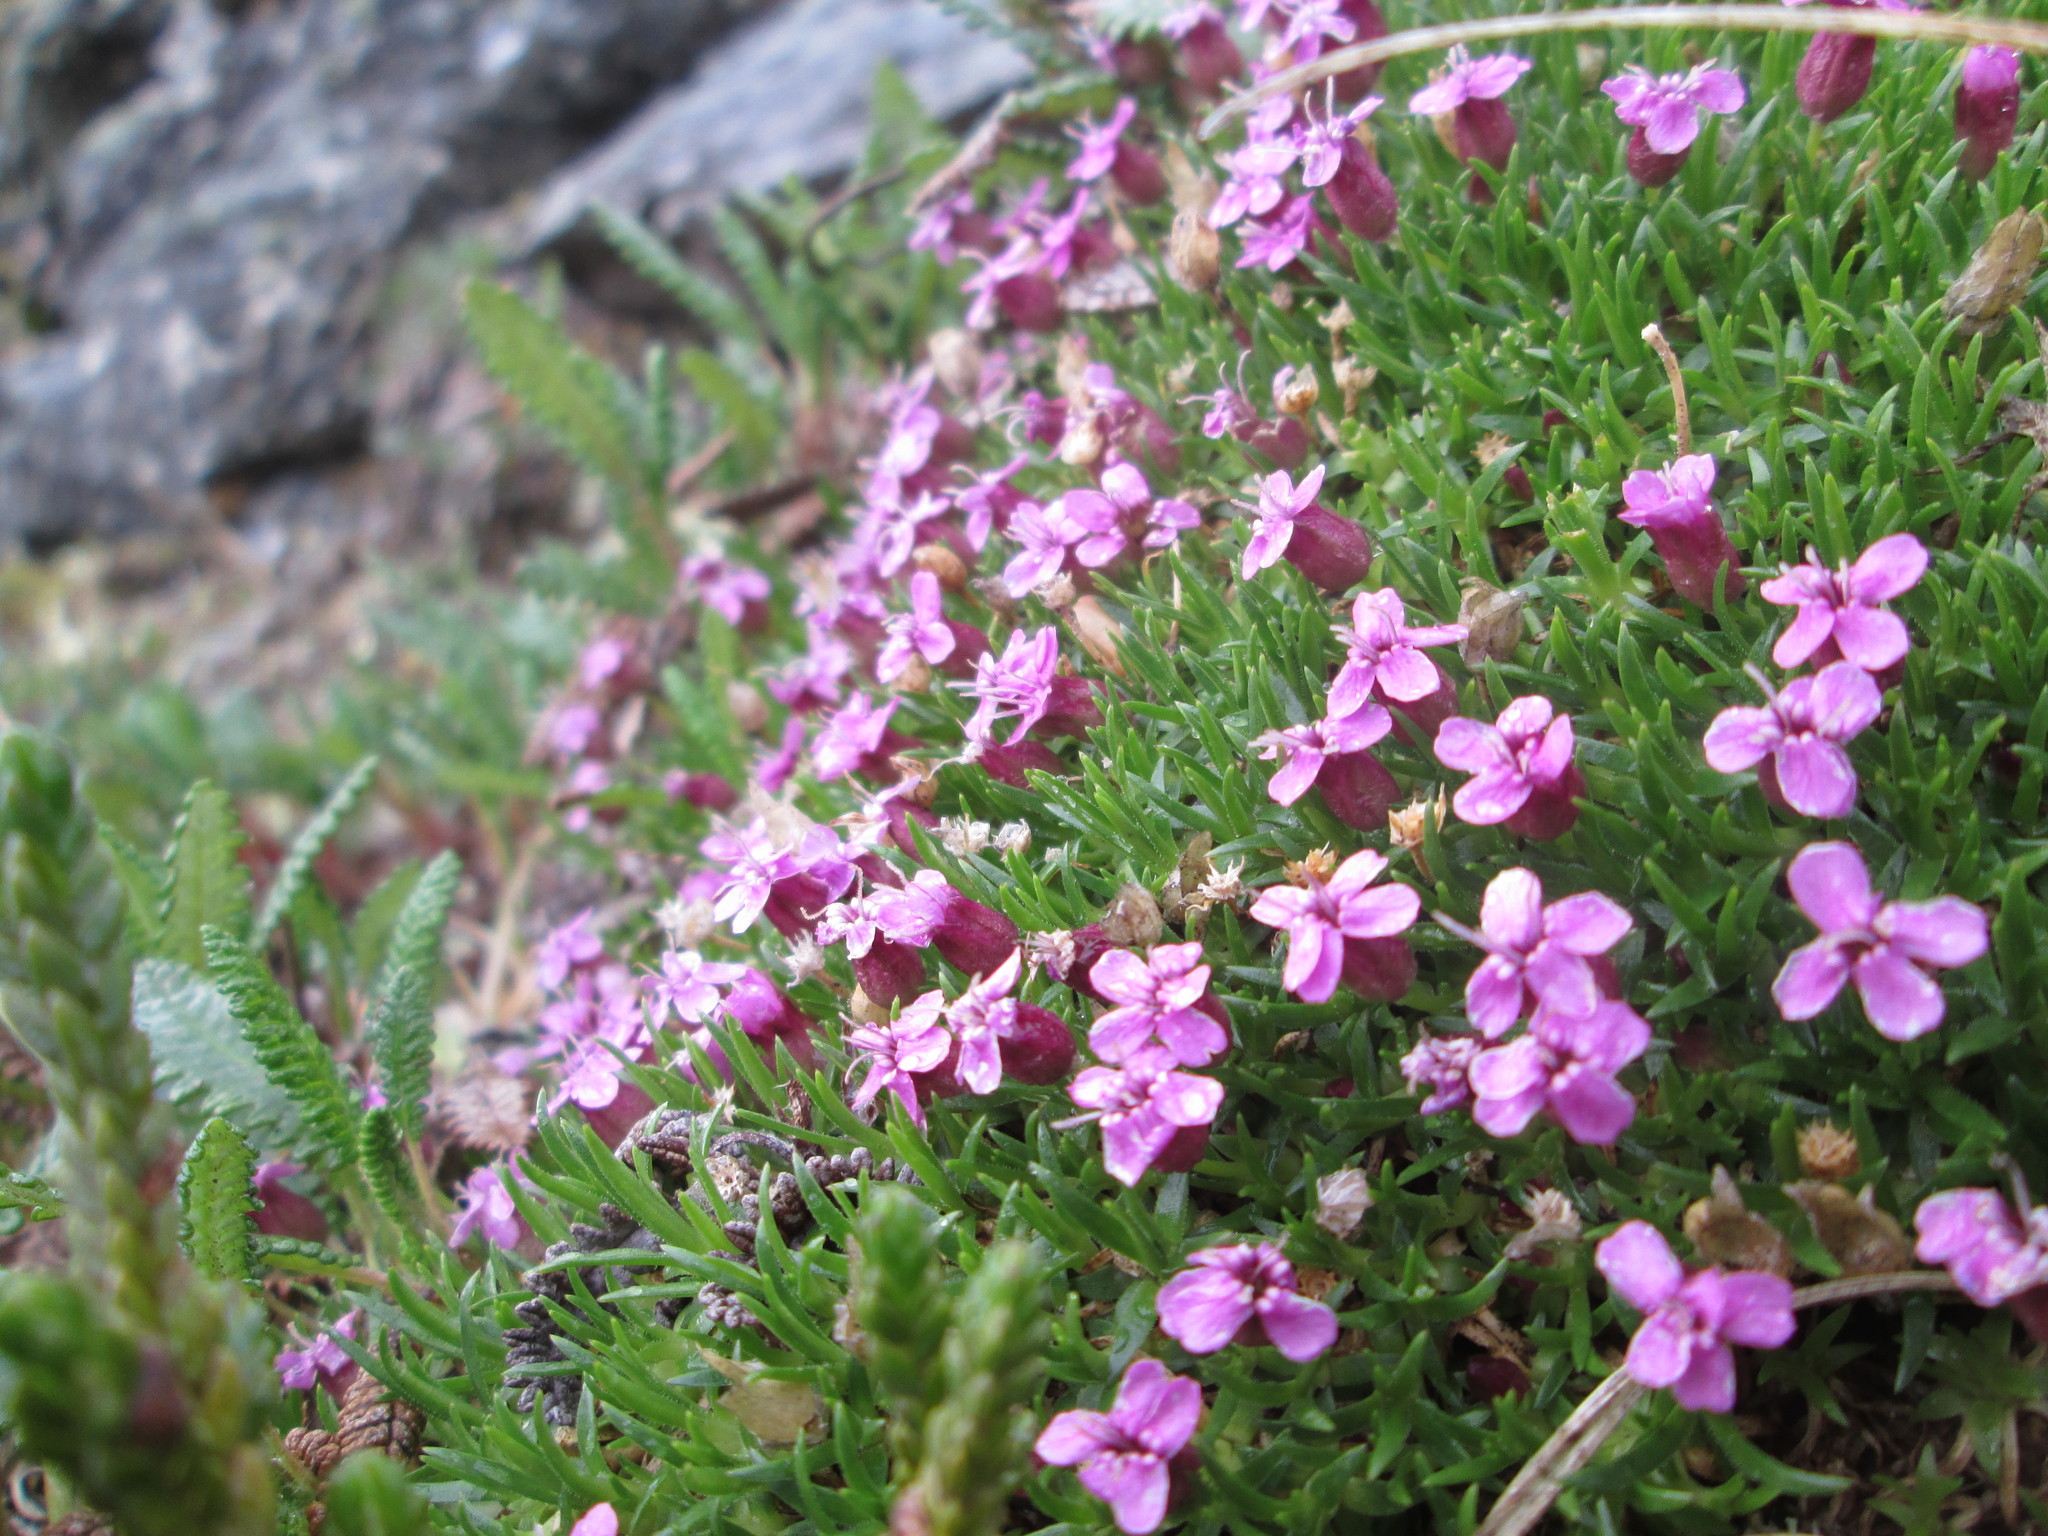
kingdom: Plantae
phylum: Tracheophyta
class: Magnoliopsida
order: Caryophyllales
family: Caryophyllaceae
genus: Silene
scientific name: Silene acaulis
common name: Moss campion
